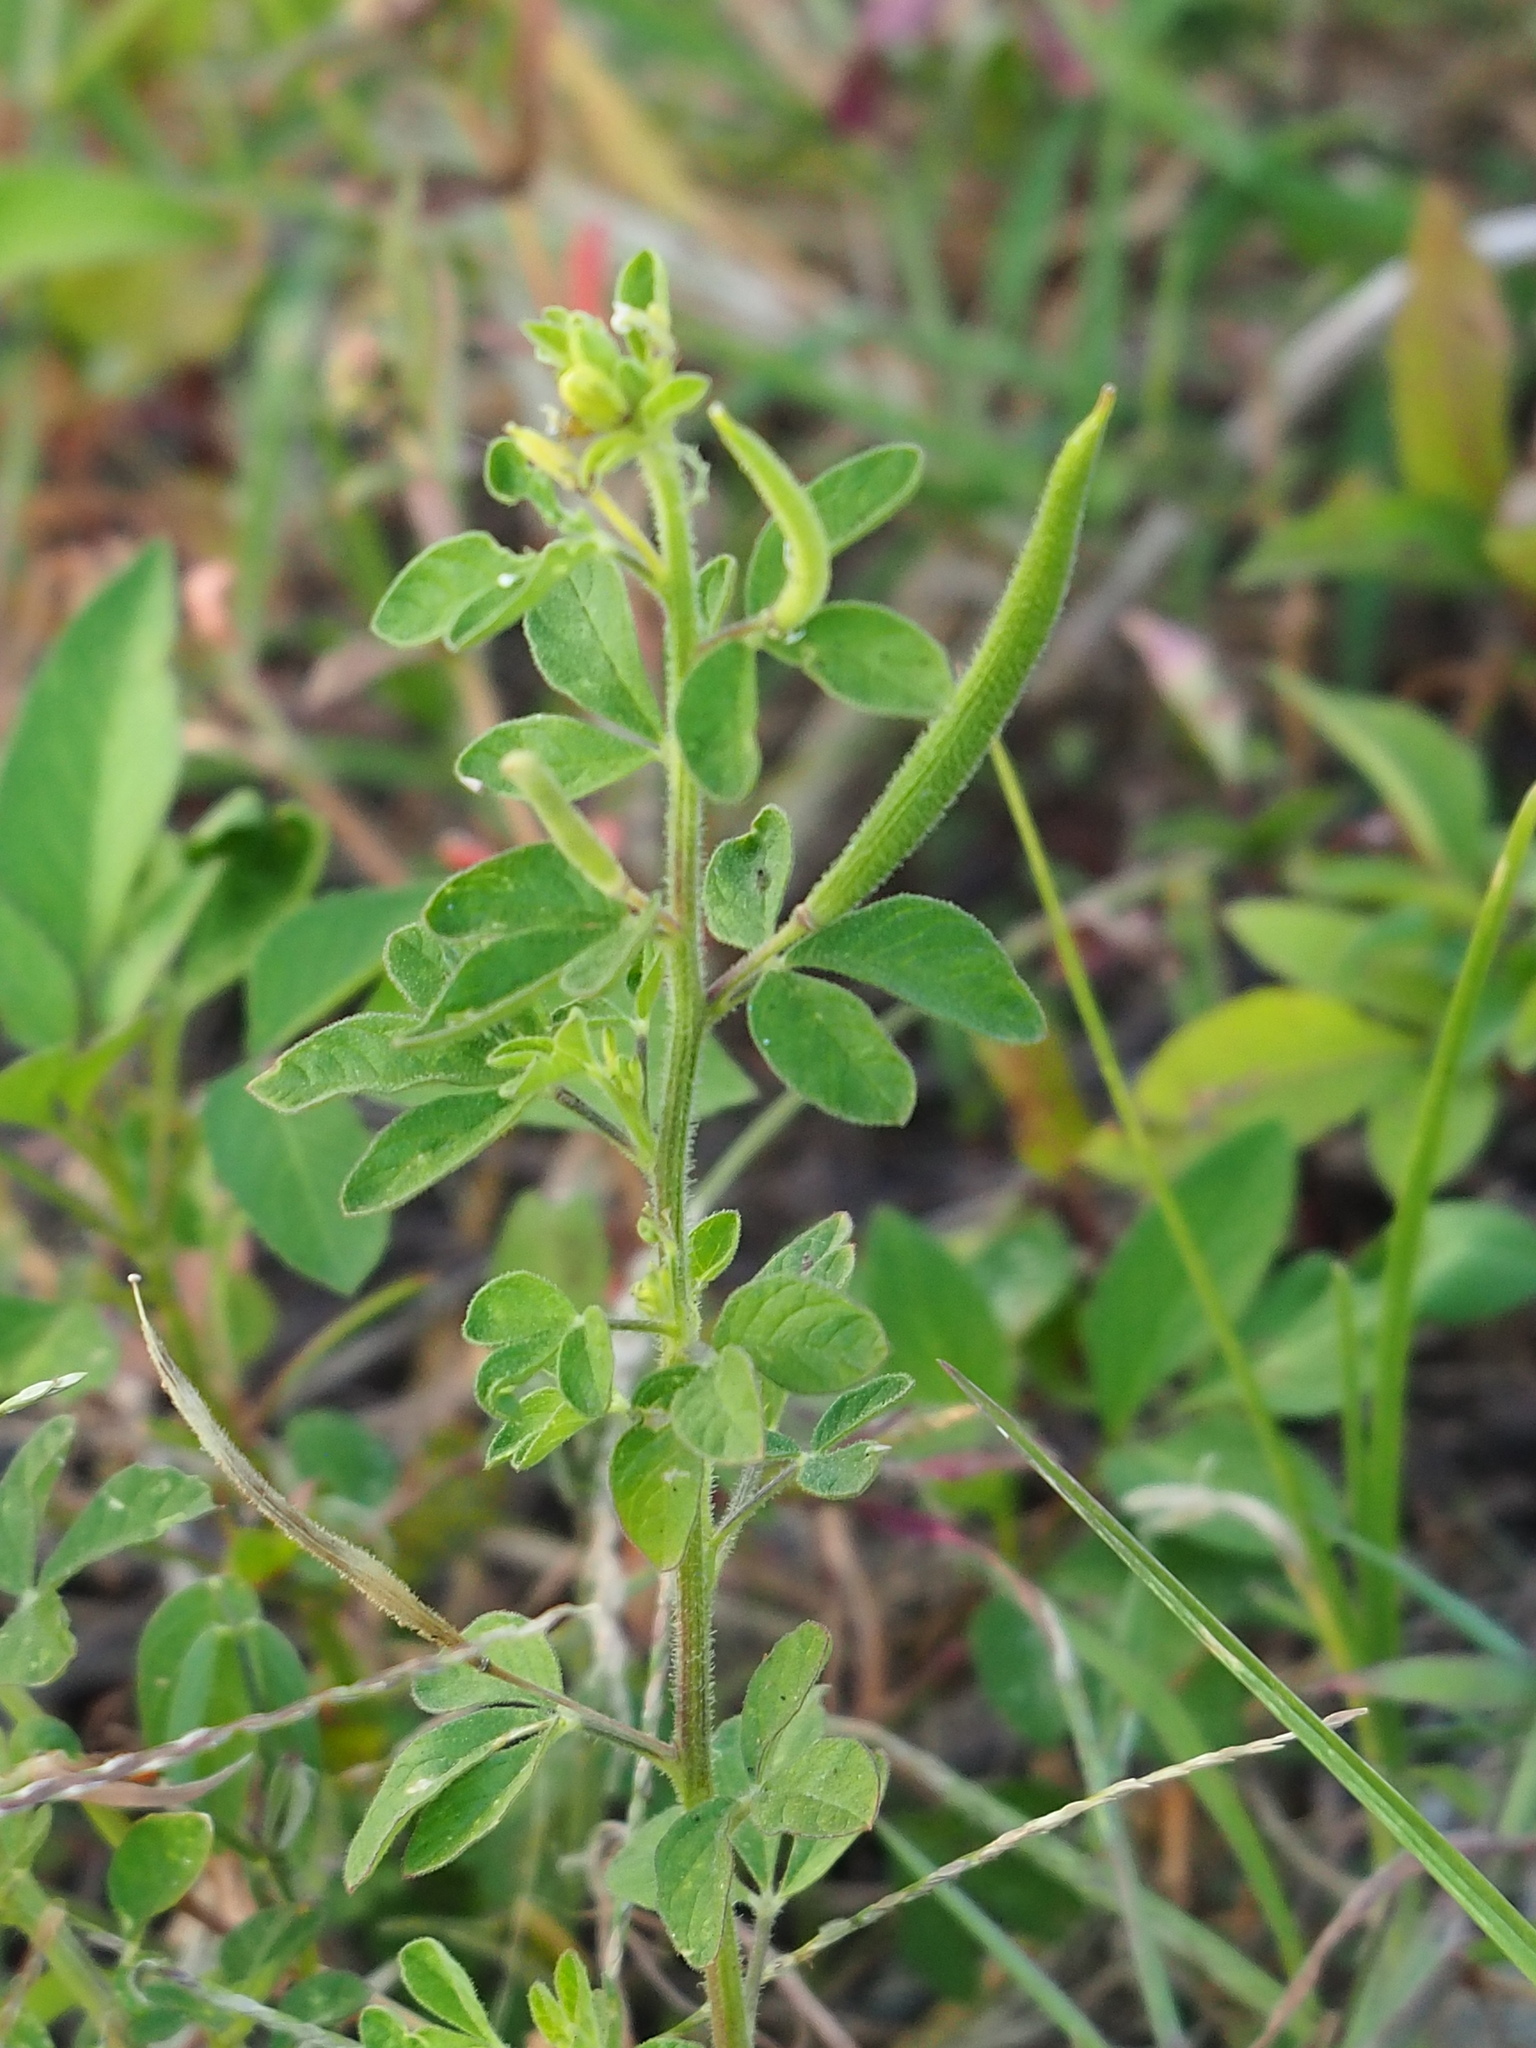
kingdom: Plantae
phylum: Tracheophyta
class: Magnoliopsida
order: Brassicales
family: Cleomaceae
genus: Arivela
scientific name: Arivela viscosa
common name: Asian spiderflower
